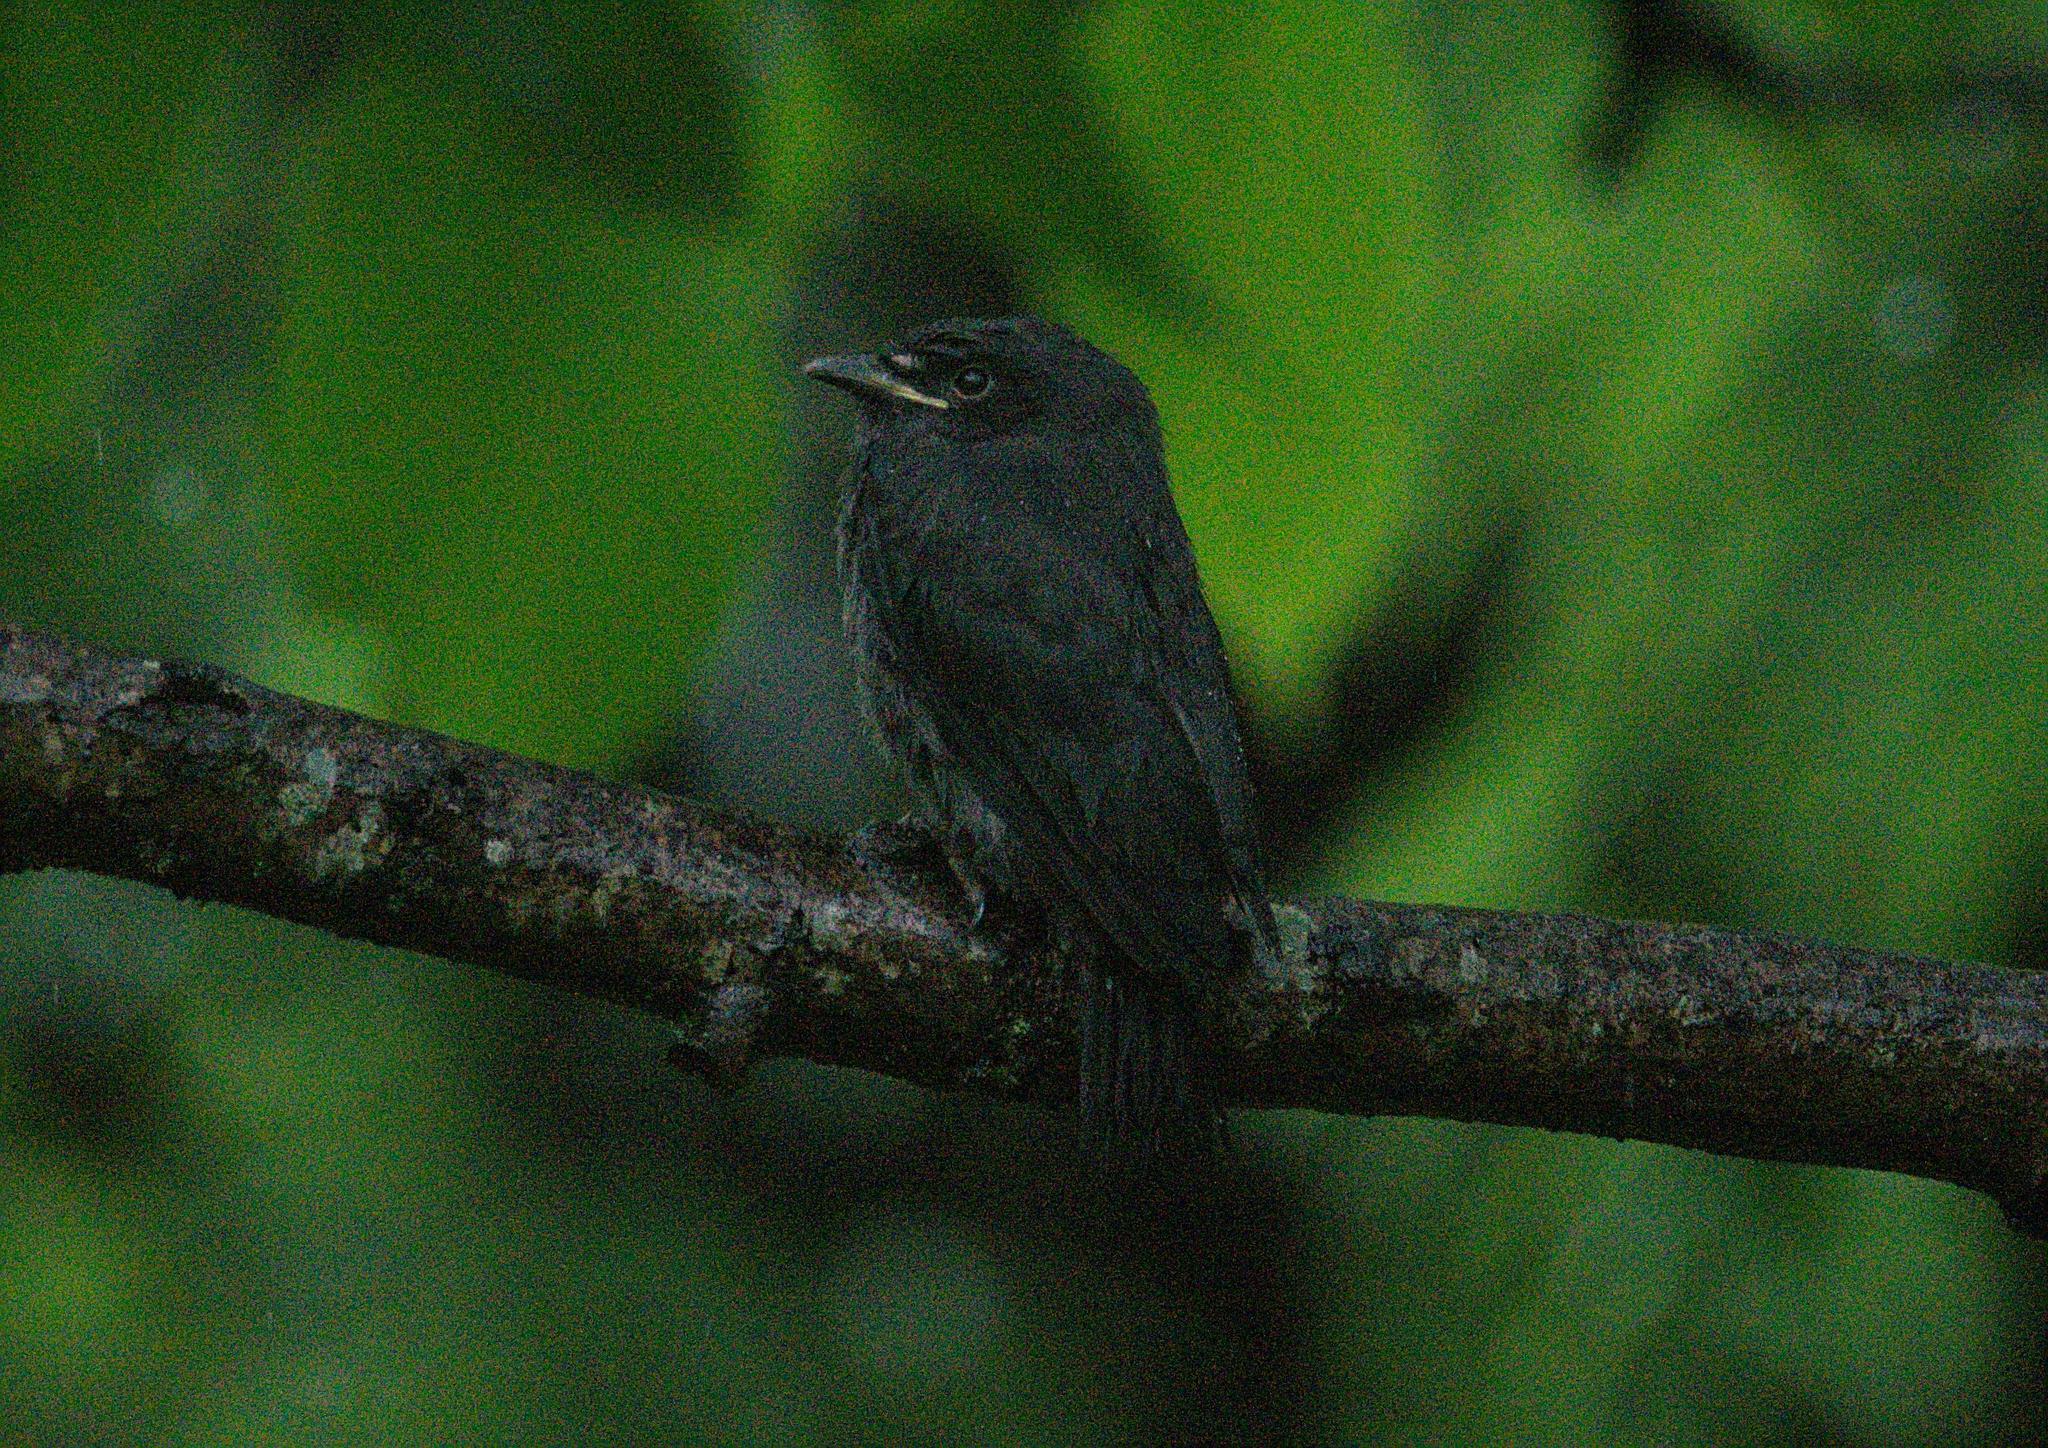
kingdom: Animalia
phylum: Chordata
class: Aves
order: Passeriformes
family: Dicruridae
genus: Dicrurus
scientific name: Dicrurus leucophaeus
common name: Ashy drongo
